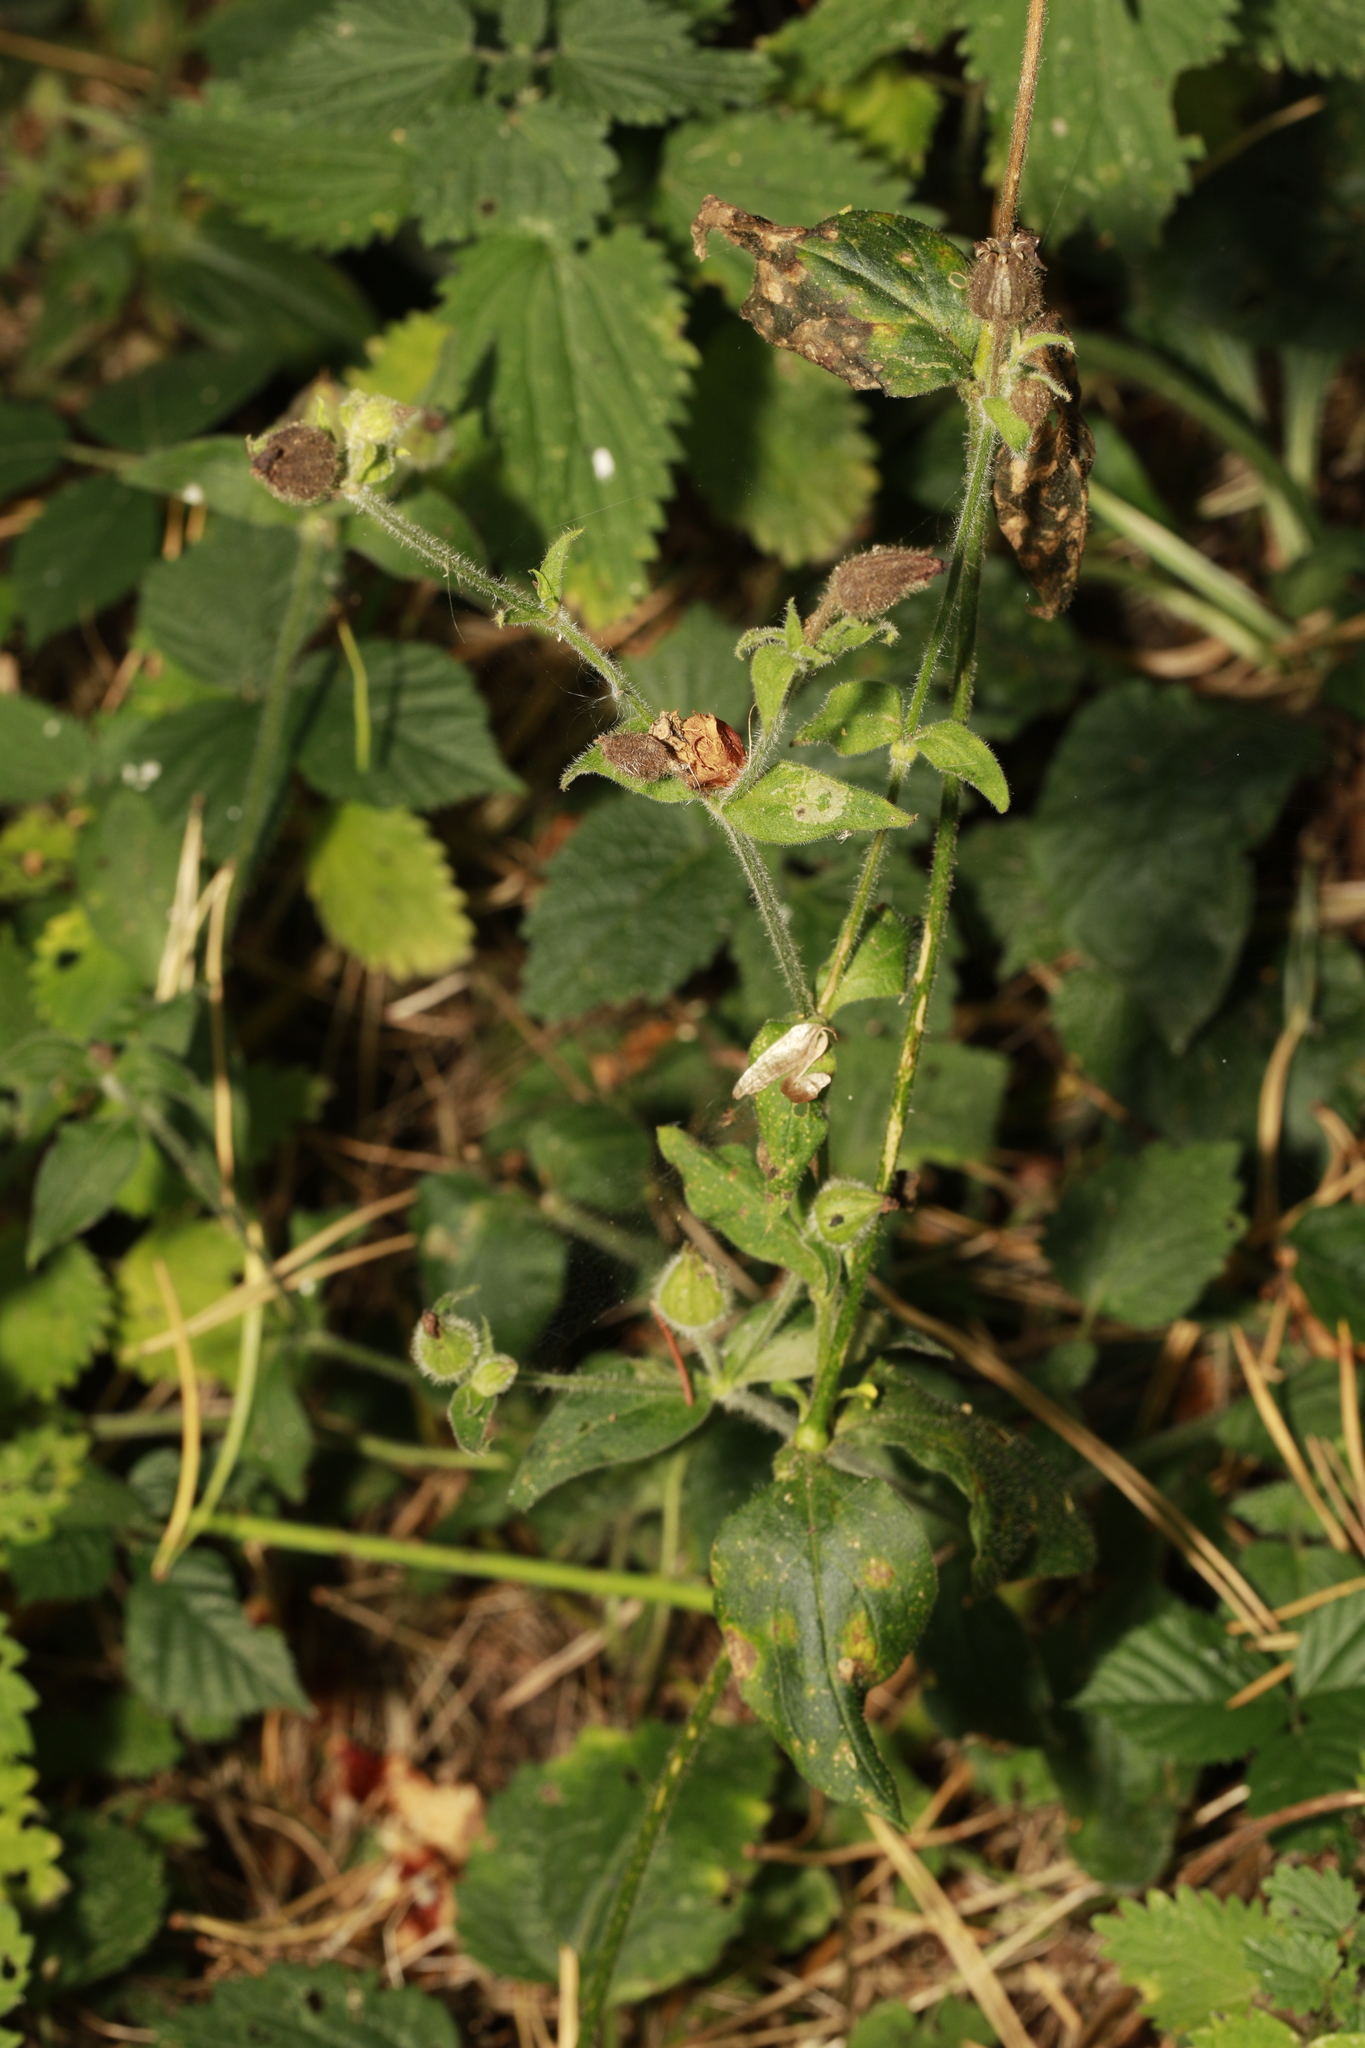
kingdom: Plantae
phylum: Tracheophyta
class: Magnoliopsida
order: Caryophyllales
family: Caryophyllaceae
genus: Silene
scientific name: Silene dioica
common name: Red campion
